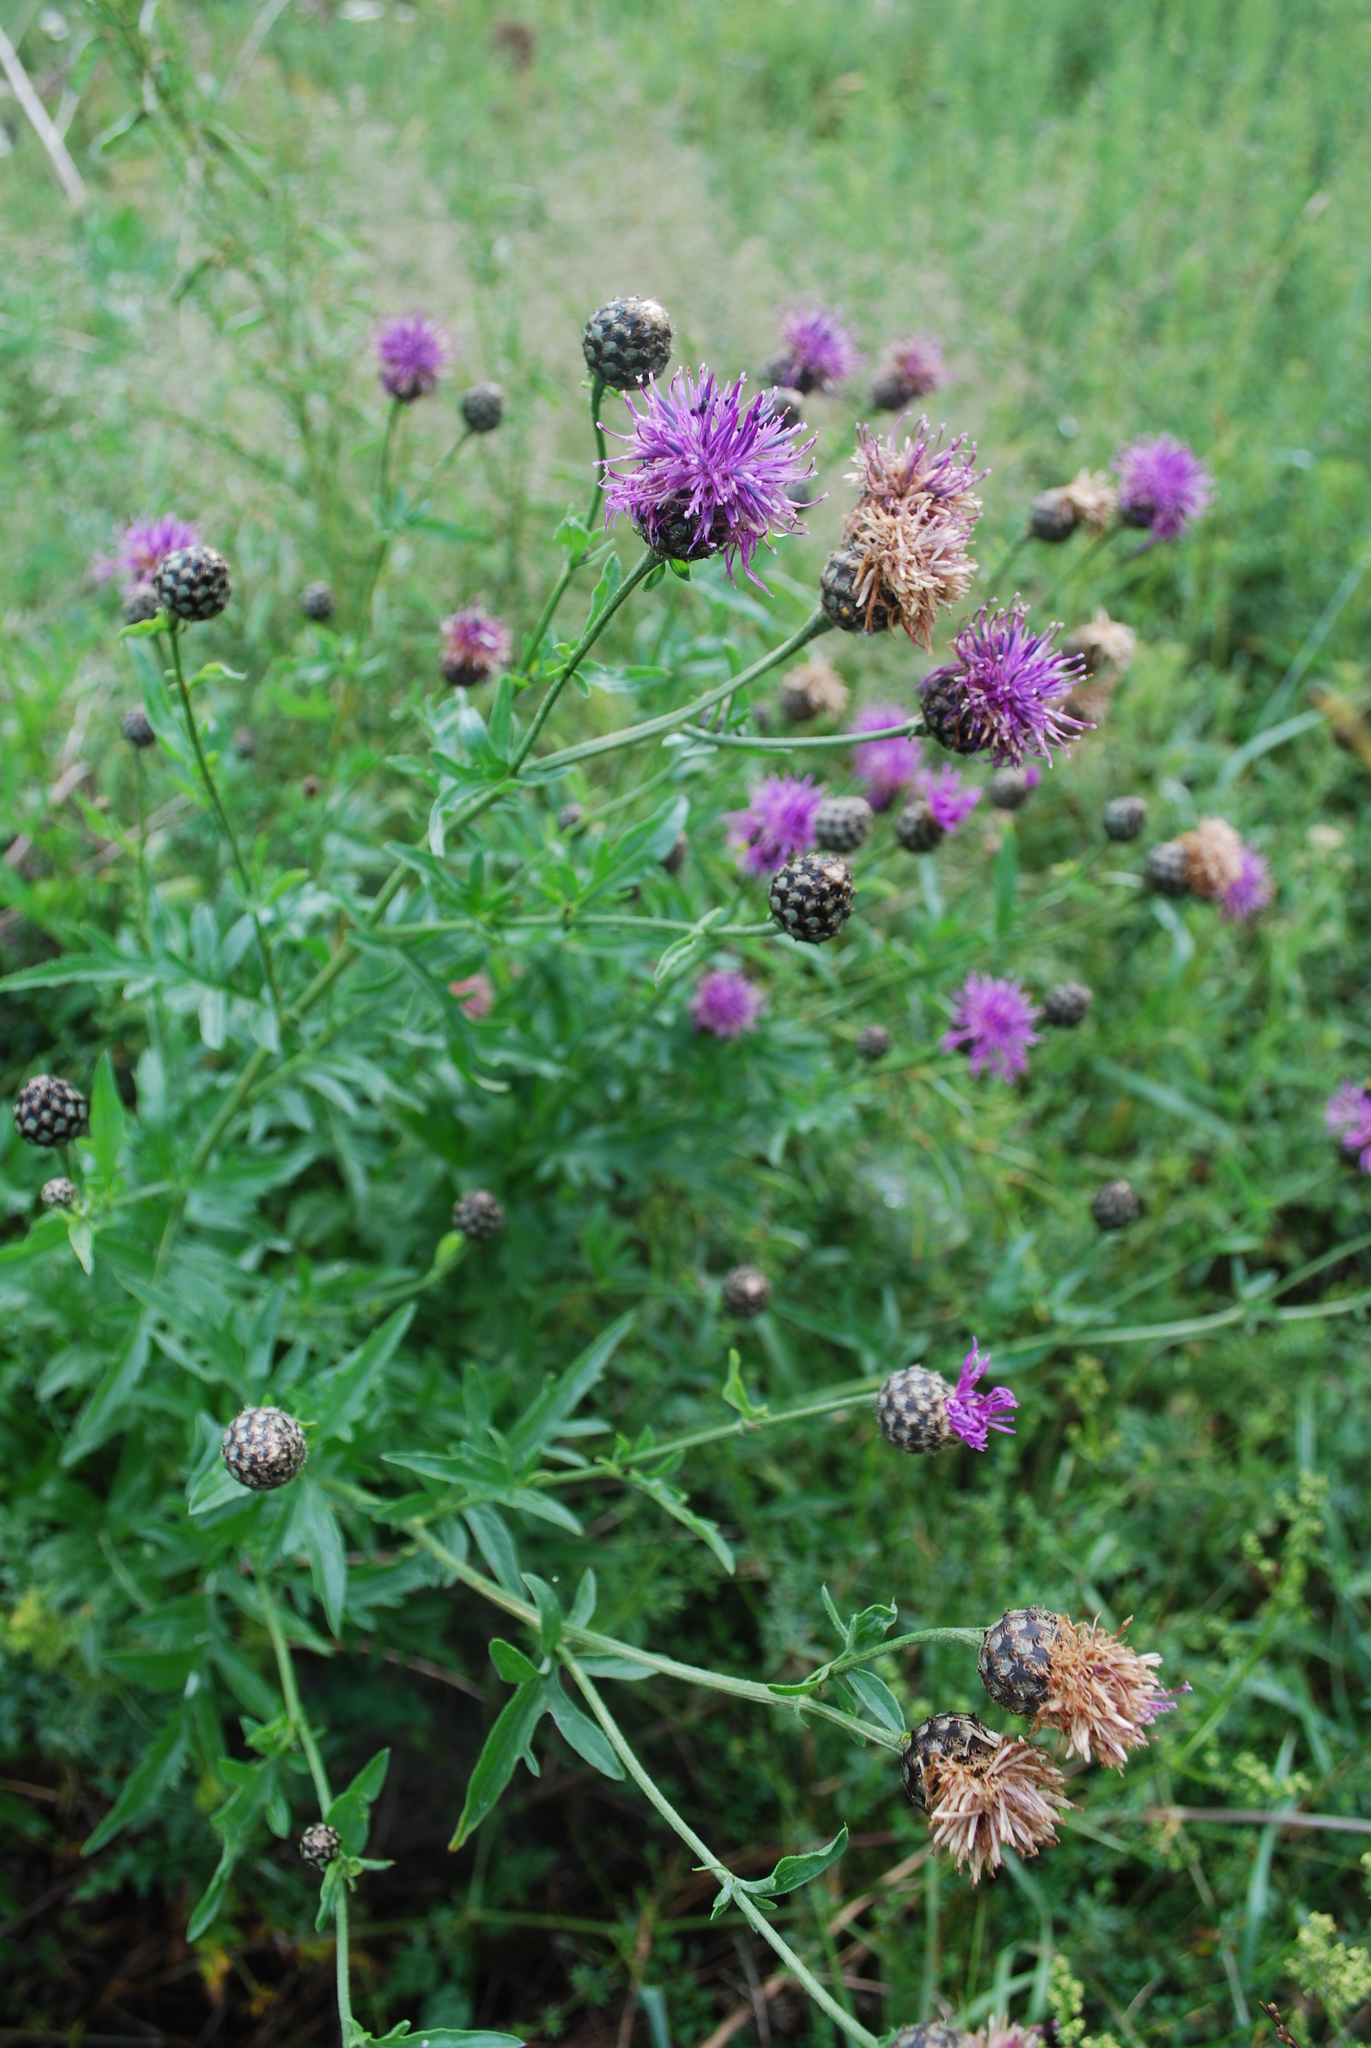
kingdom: Plantae
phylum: Tracheophyta
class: Magnoliopsida
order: Asterales
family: Asteraceae
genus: Centaurea
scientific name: Centaurea scabiosa
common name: Greater knapweed
